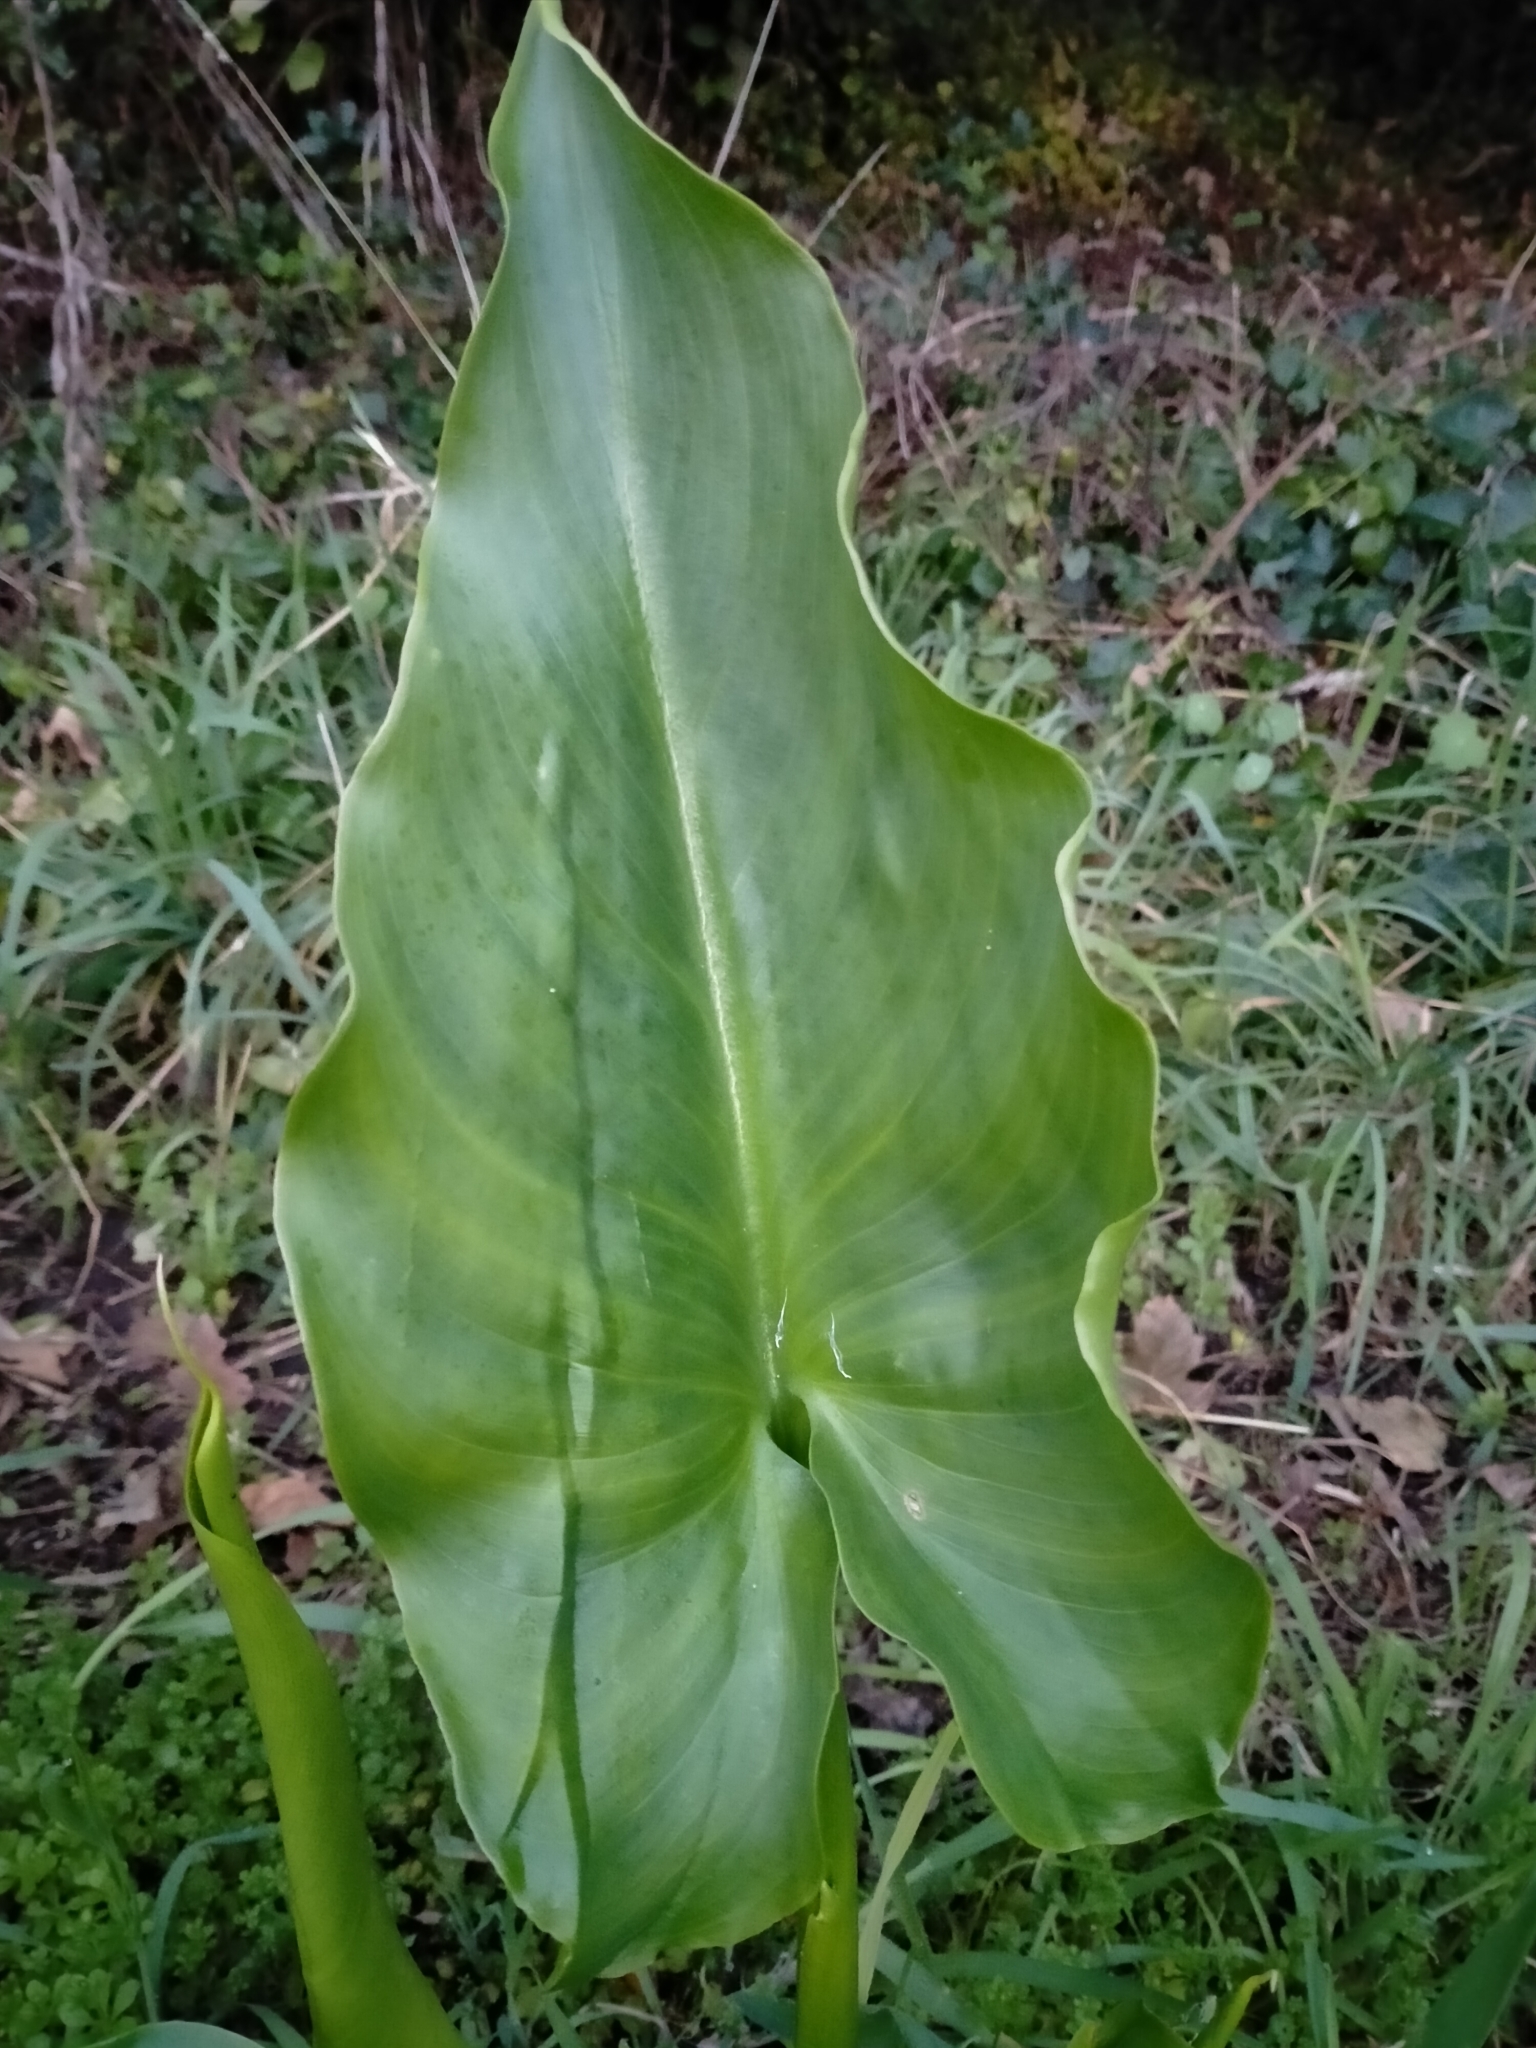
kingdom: Plantae
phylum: Tracheophyta
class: Liliopsida
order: Alismatales
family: Araceae
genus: Zantedeschia
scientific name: Zantedeschia aethiopica
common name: Altar-lily
